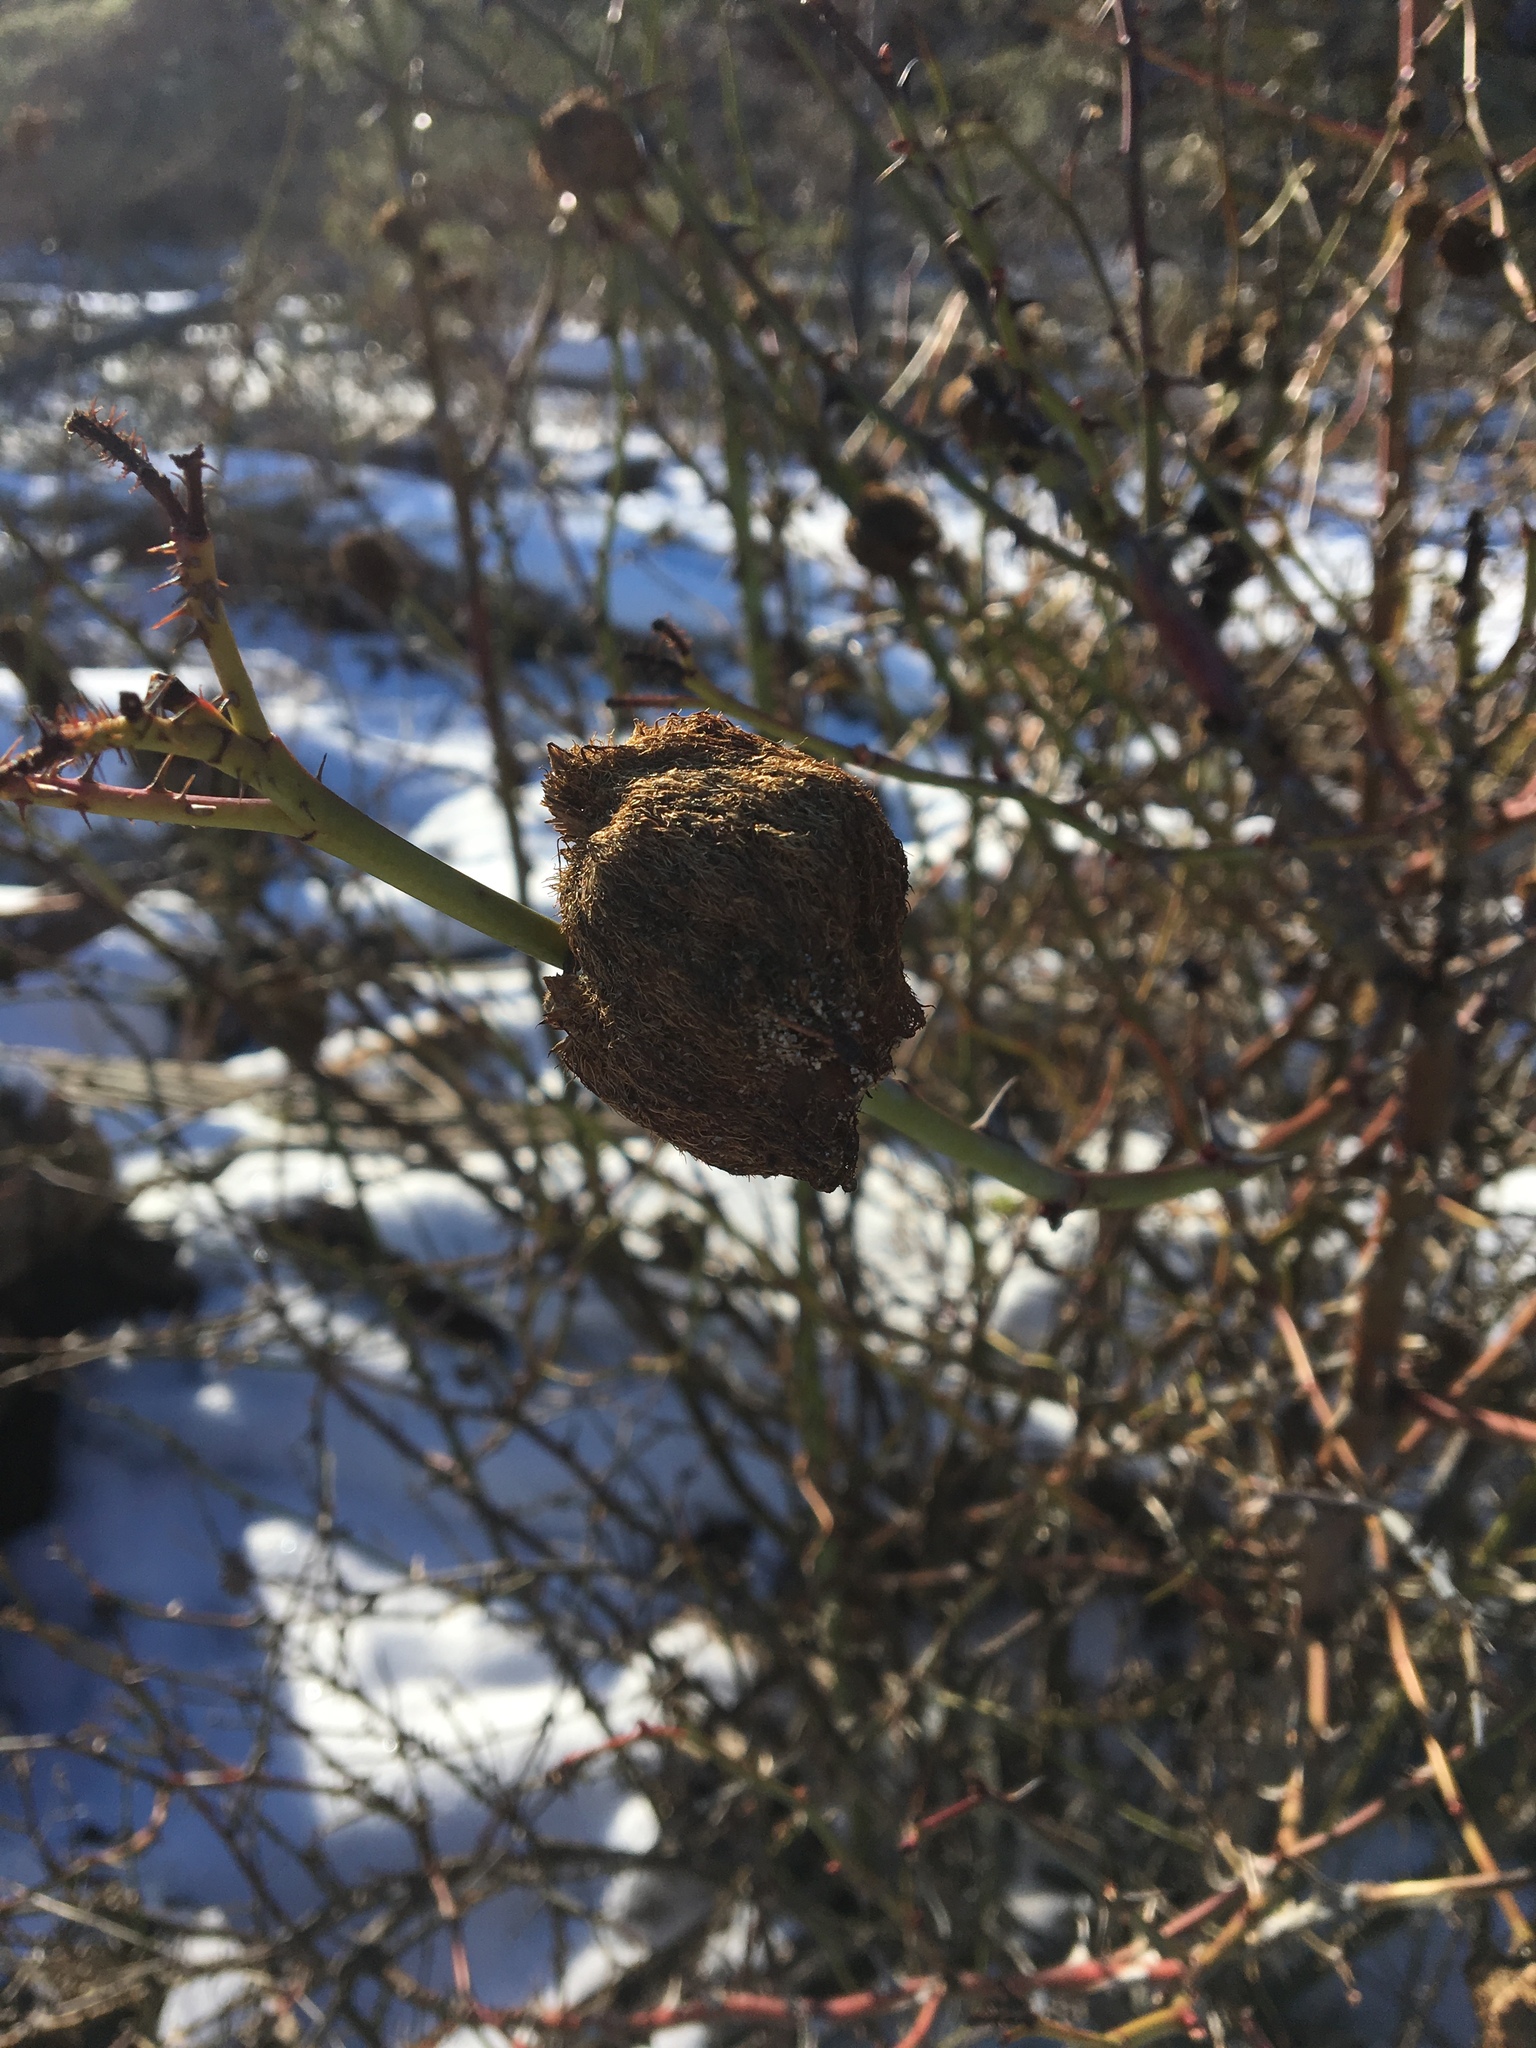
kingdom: Animalia
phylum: Arthropoda
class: Insecta
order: Hymenoptera
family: Cynipidae
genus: Diplolepis
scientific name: Diplolepis rosae
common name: Bedeguar gall
